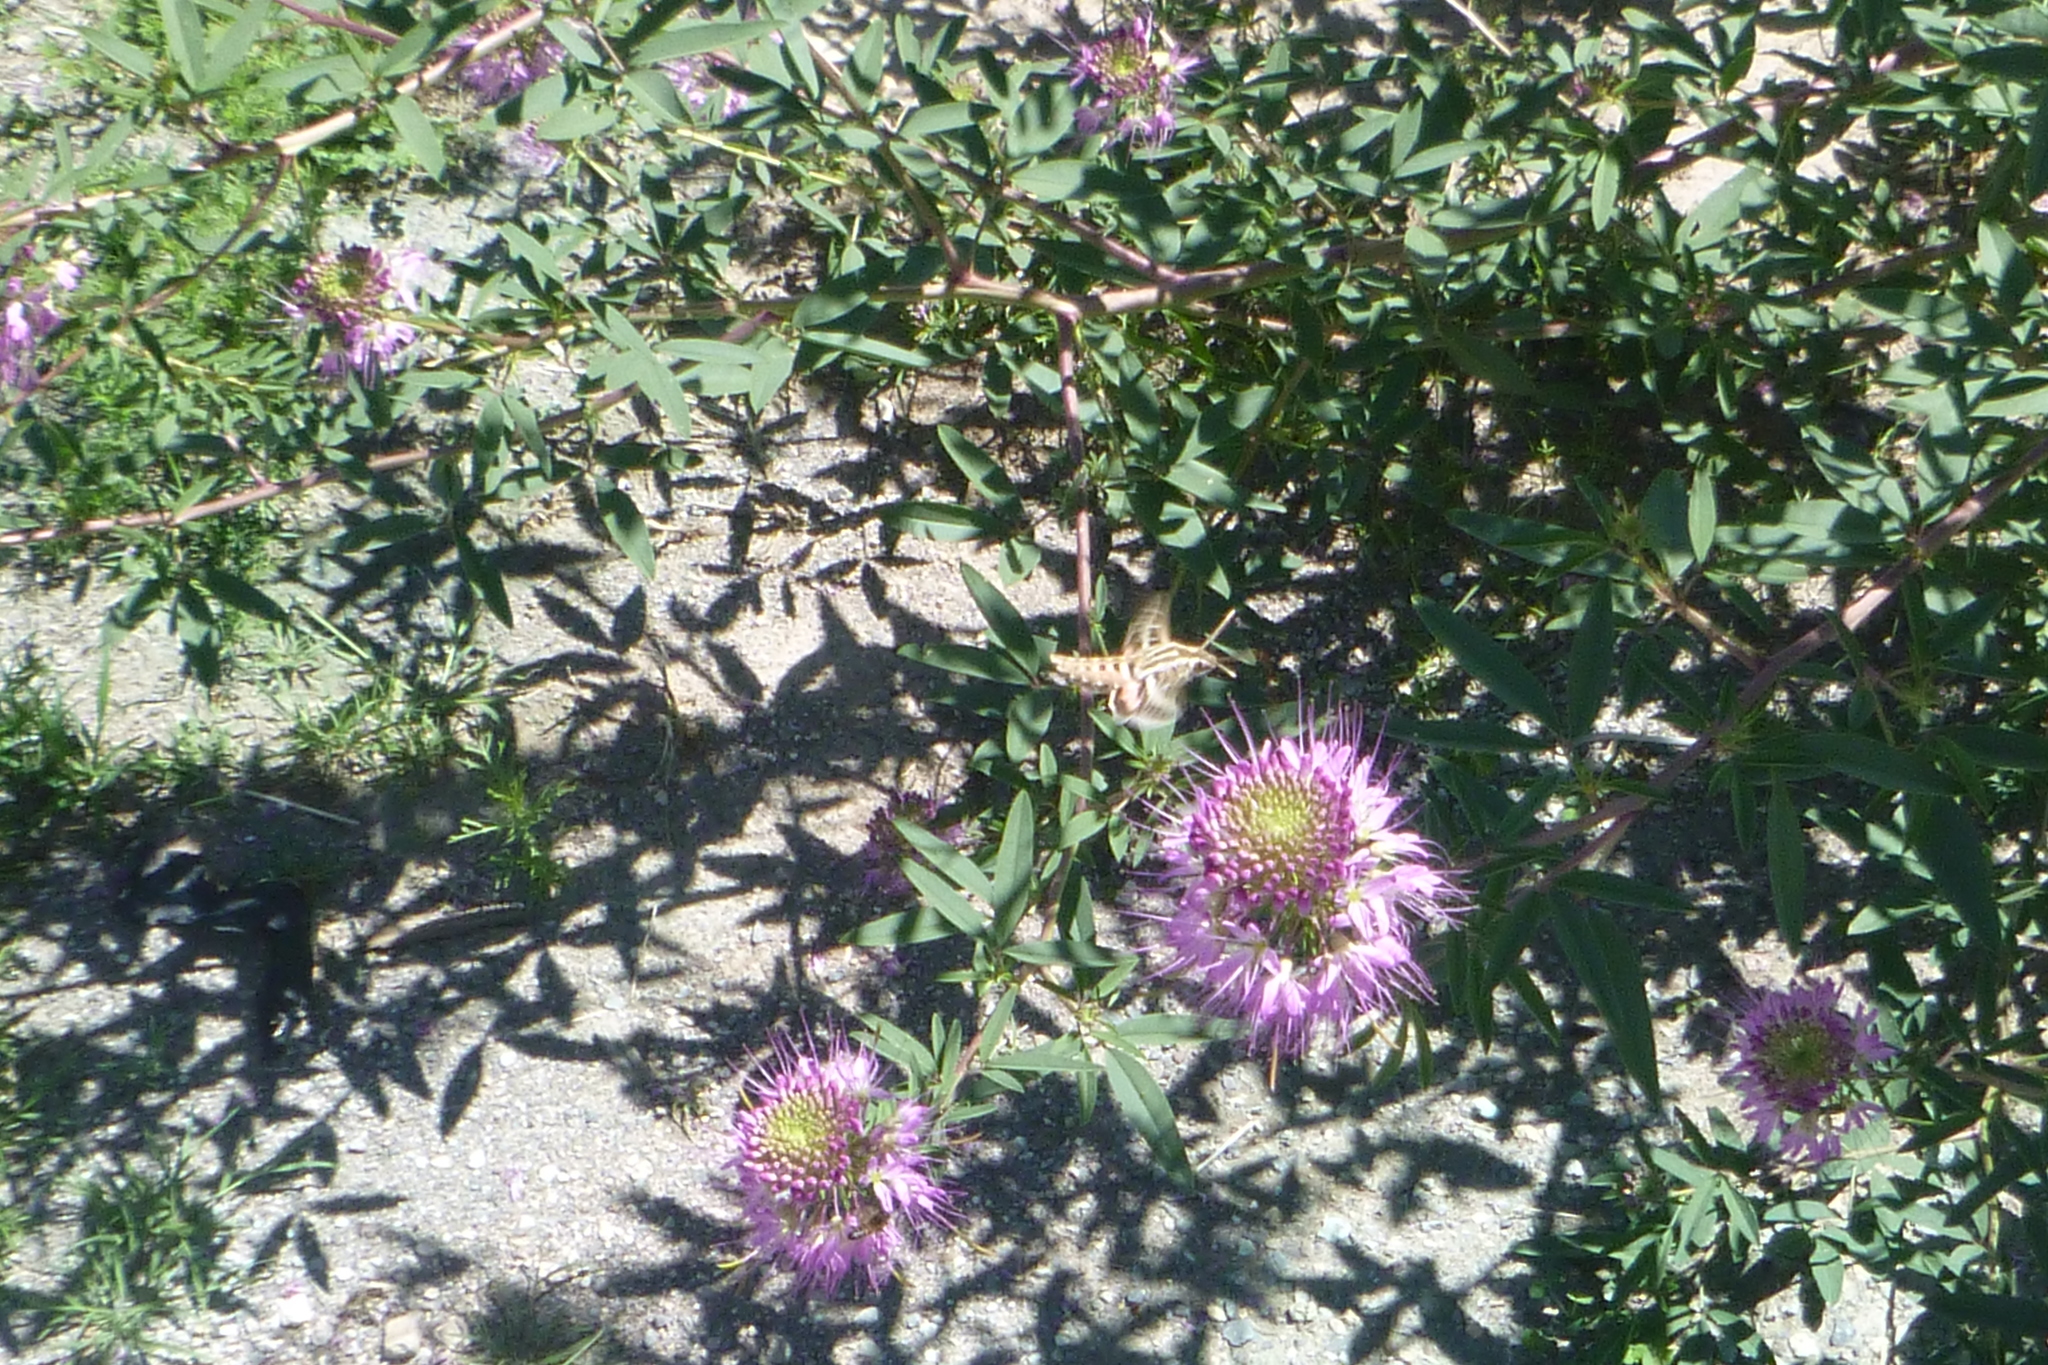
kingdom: Animalia
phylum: Arthropoda
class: Insecta
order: Lepidoptera
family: Sphingidae
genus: Hyles
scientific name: Hyles lineata
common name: White-lined sphinx
